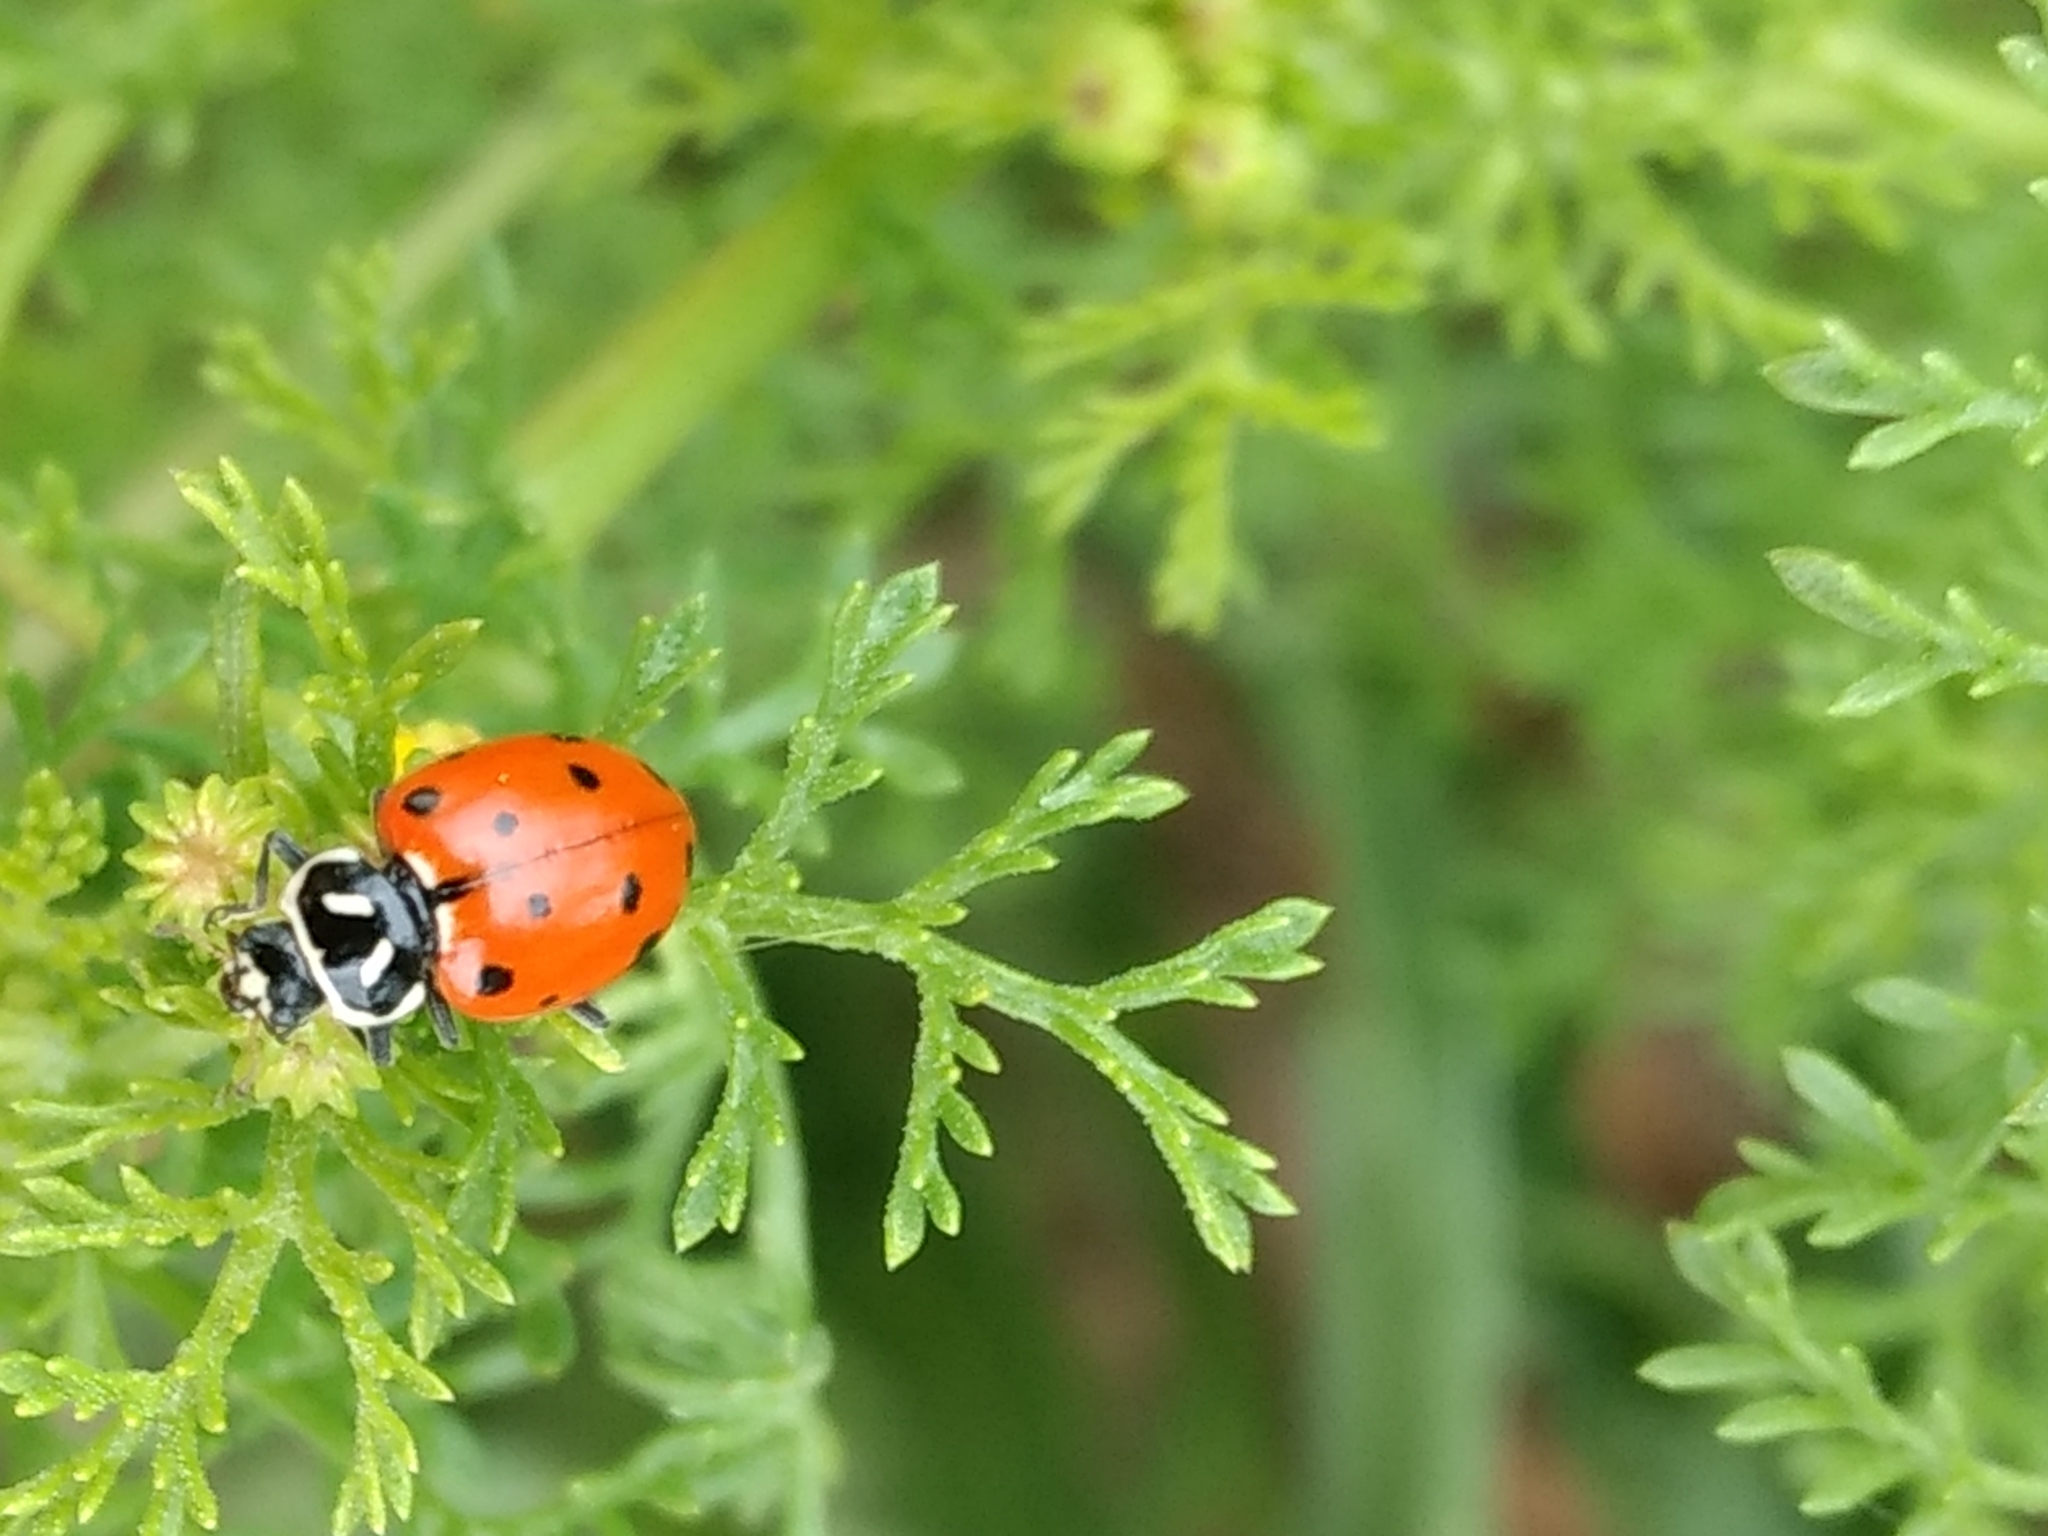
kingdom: Animalia
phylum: Arthropoda
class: Insecta
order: Coleoptera
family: Coccinellidae
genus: Hippodamia
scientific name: Hippodamia convergens
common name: Convergent lady beetle
